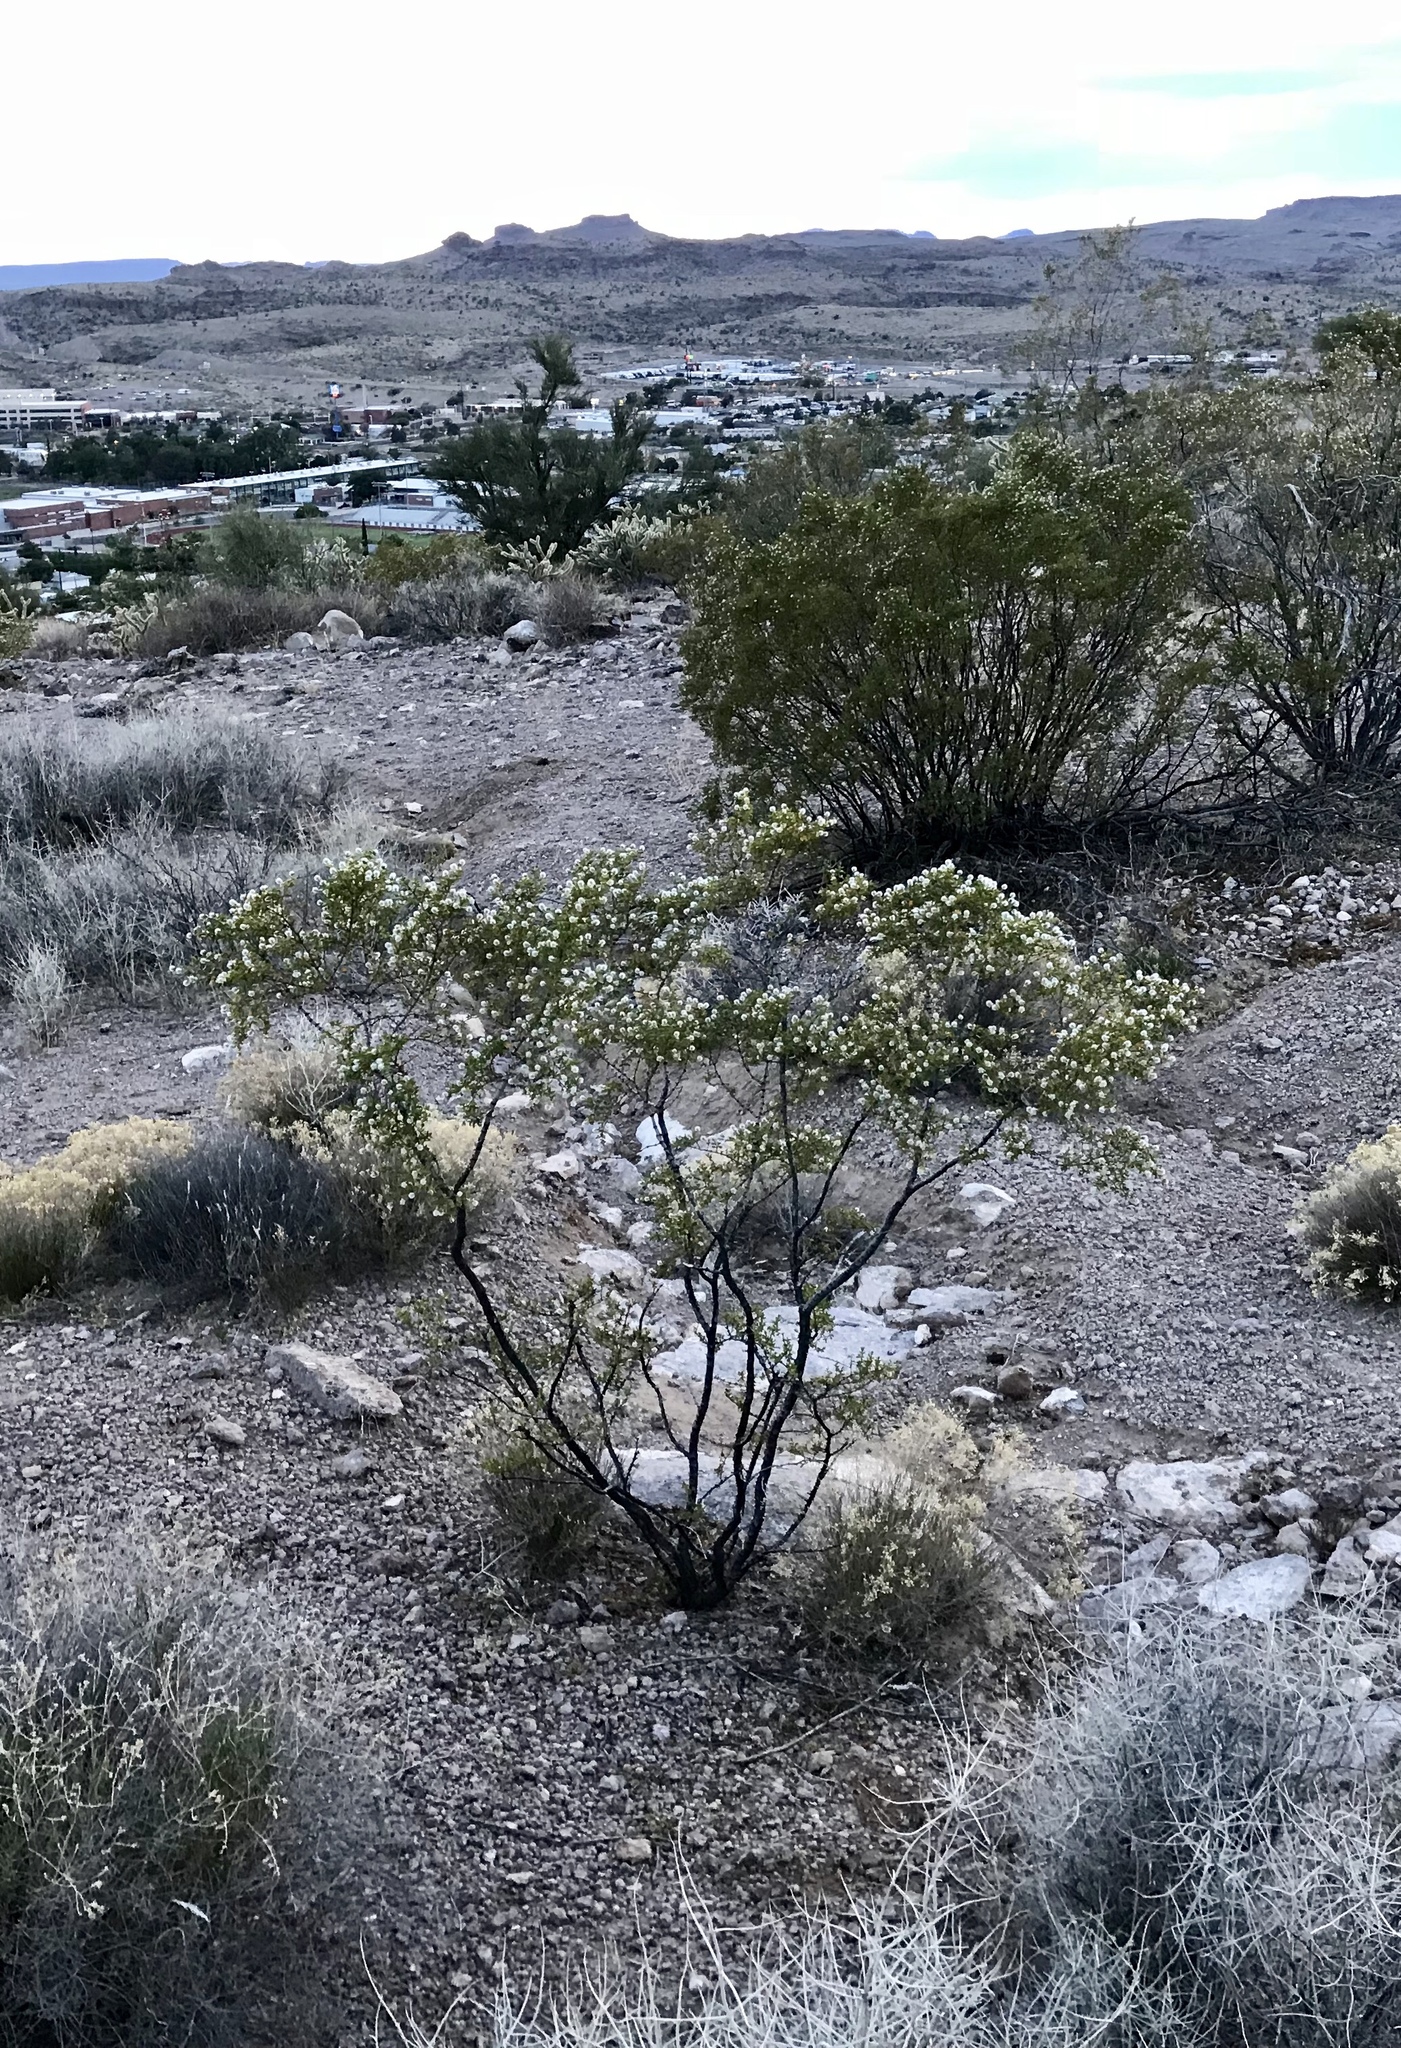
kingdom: Plantae
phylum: Tracheophyta
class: Magnoliopsida
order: Zygophyllales
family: Zygophyllaceae
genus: Larrea
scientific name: Larrea tridentata
